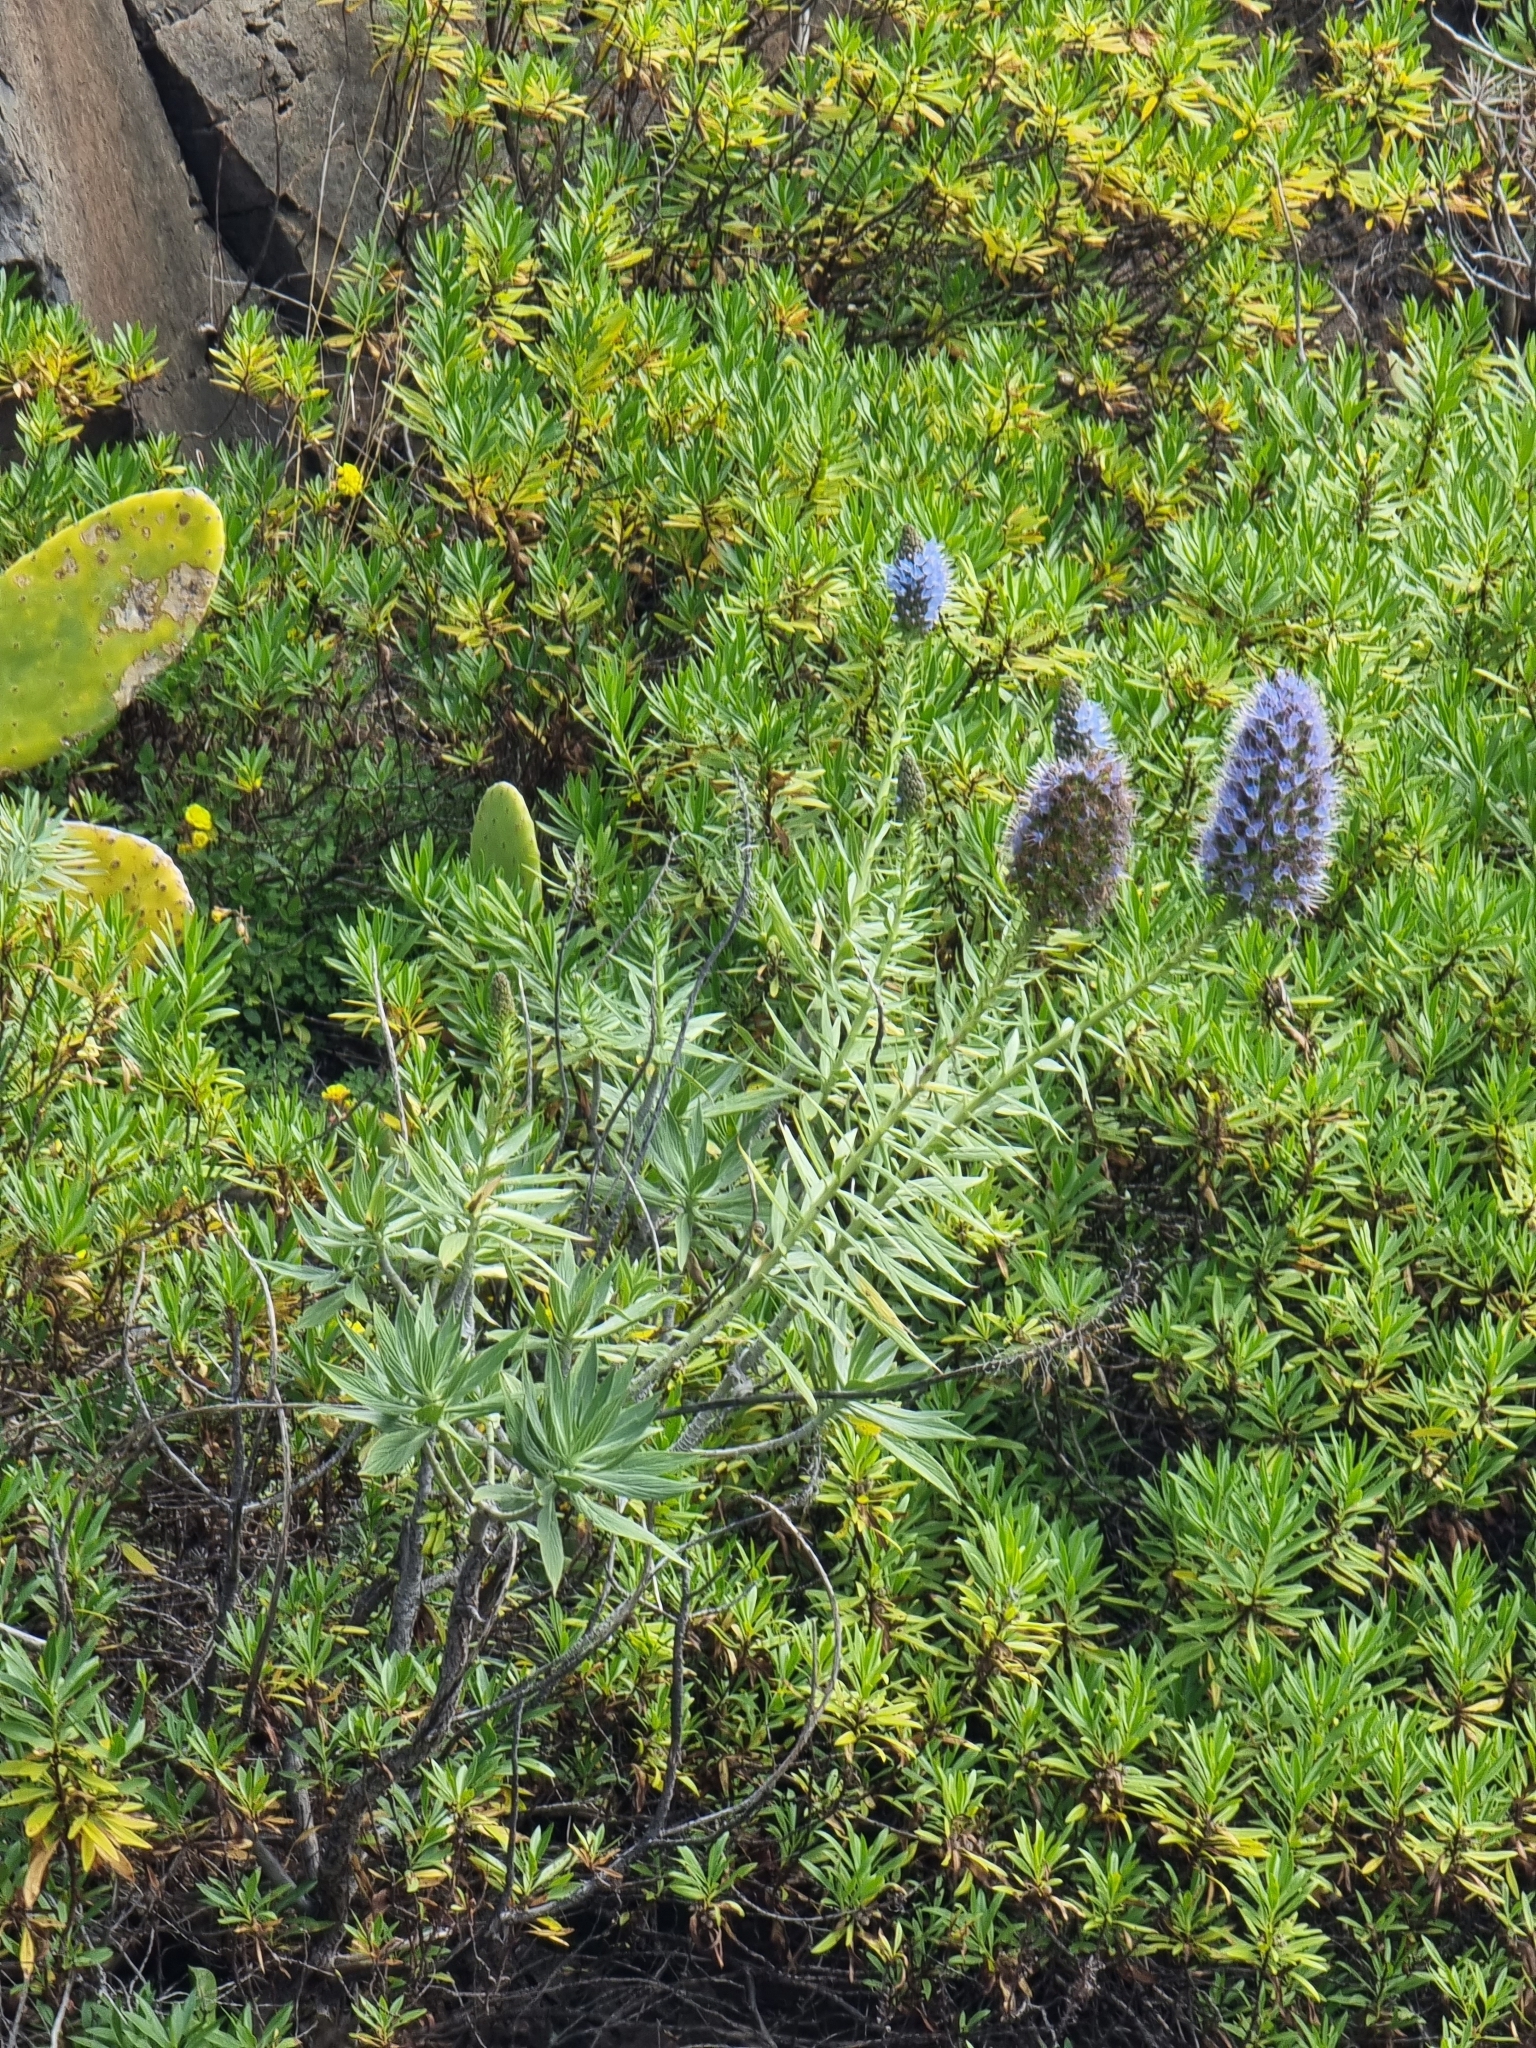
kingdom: Plantae
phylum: Tracheophyta
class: Magnoliopsida
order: Boraginales
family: Boraginaceae
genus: Echium
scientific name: Echium nervosum
